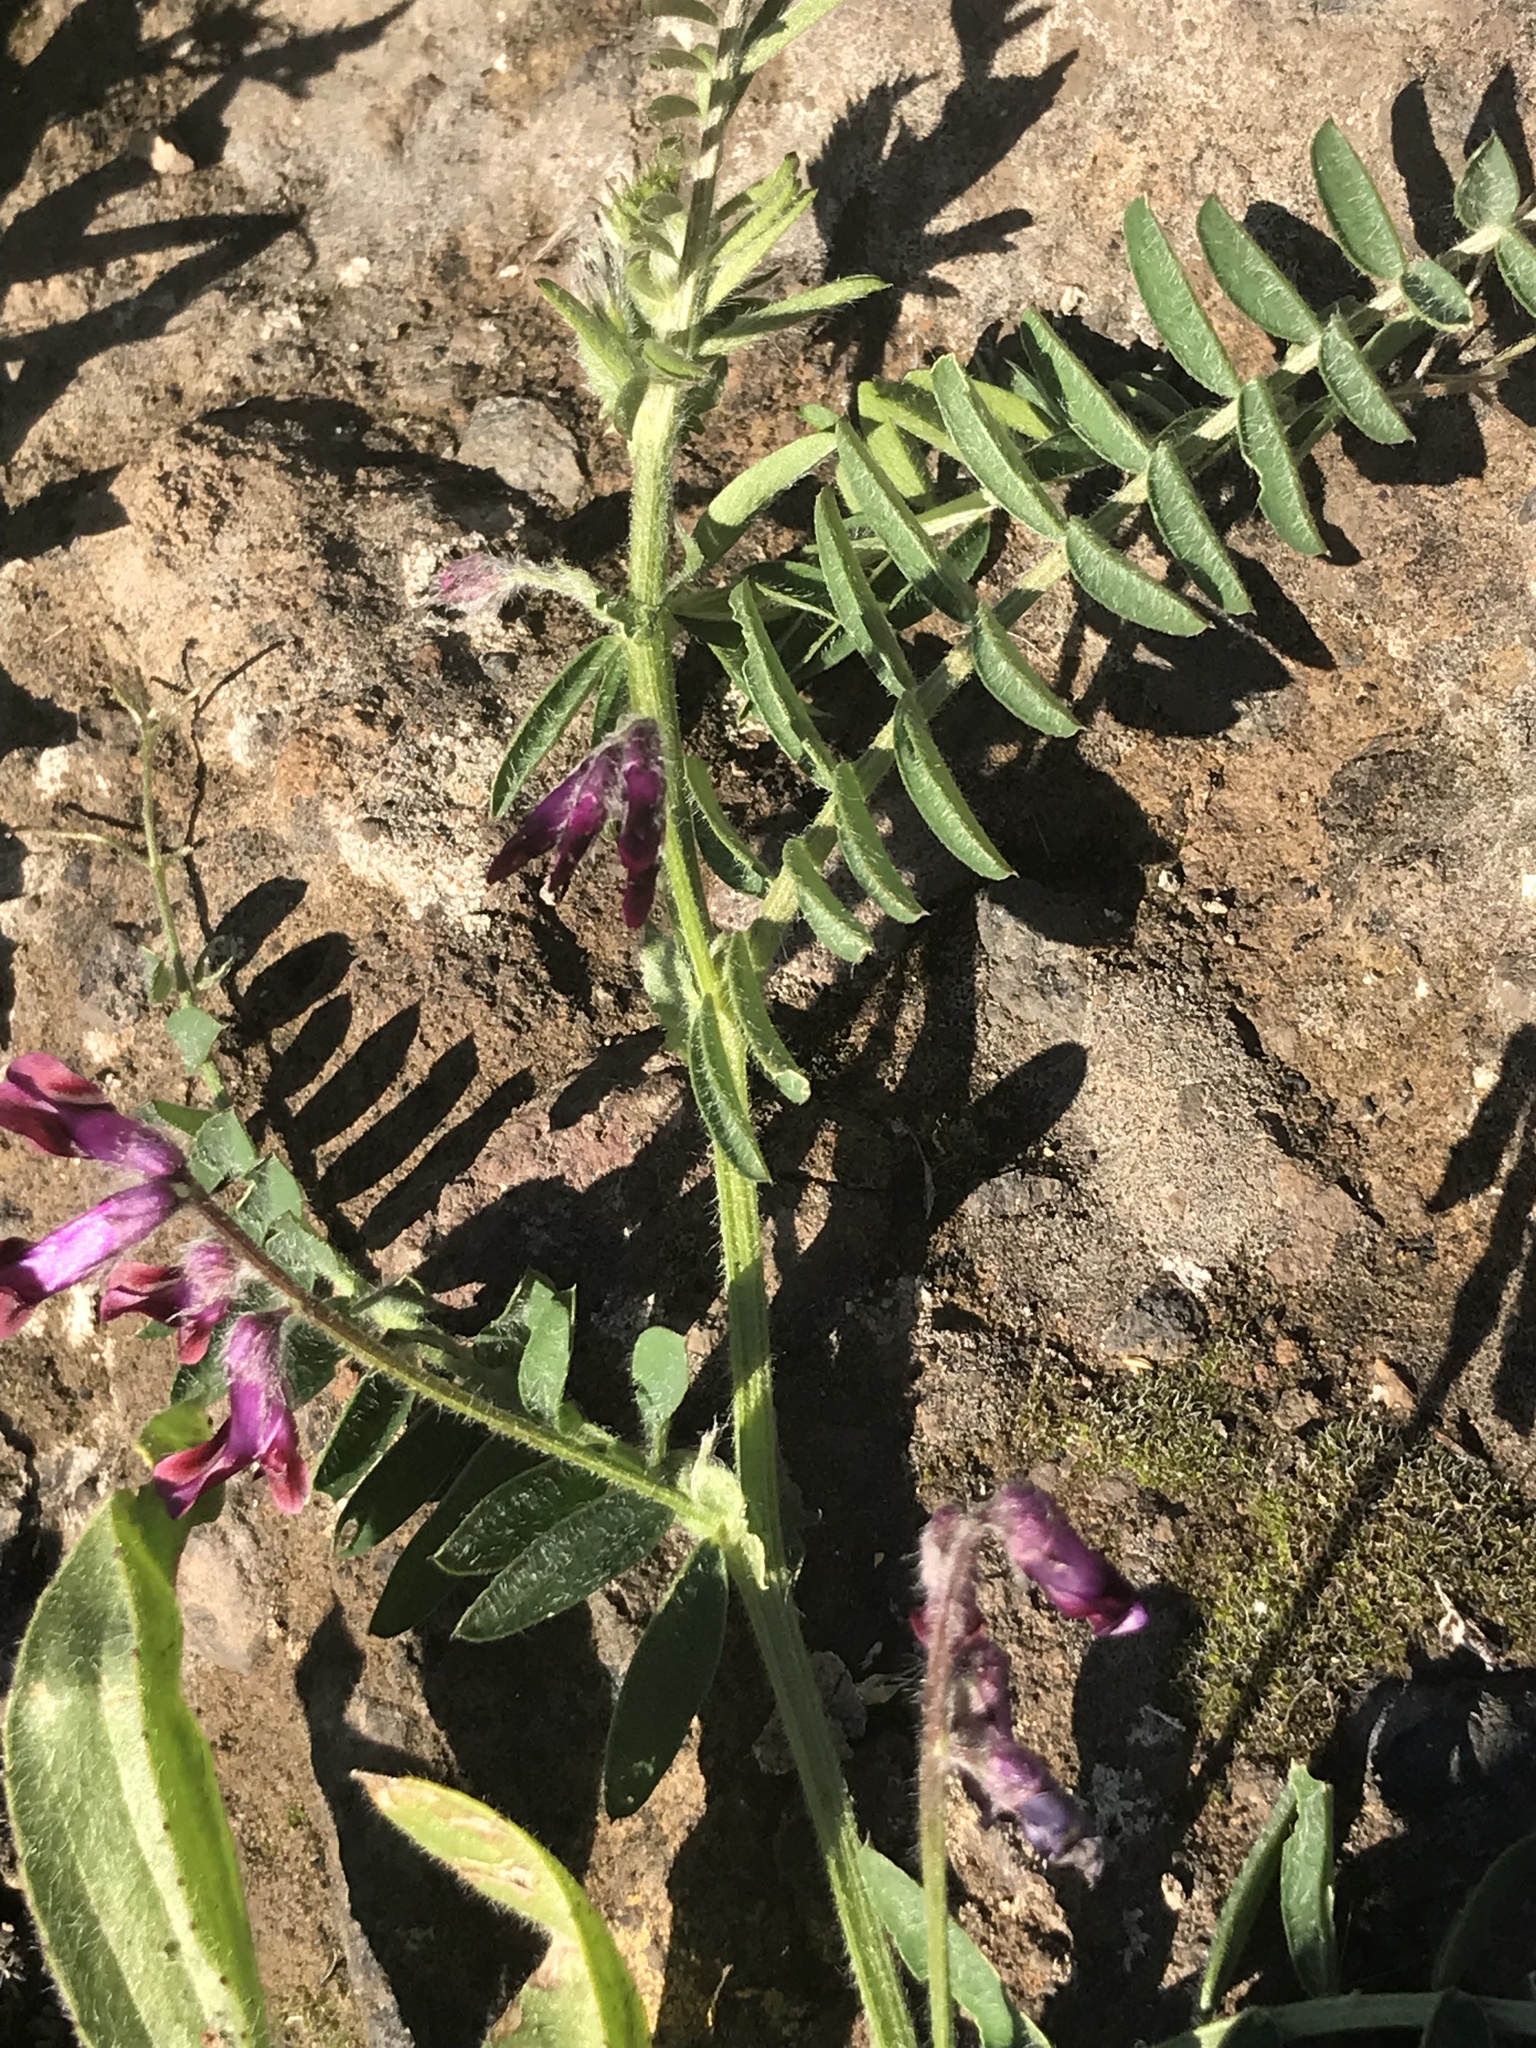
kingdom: Plantae
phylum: Tracheophyta
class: Magnoliopsida
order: Fabales
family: Fabaceae
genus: Vicia
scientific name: Vicia benghalensis
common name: Purple vetch
